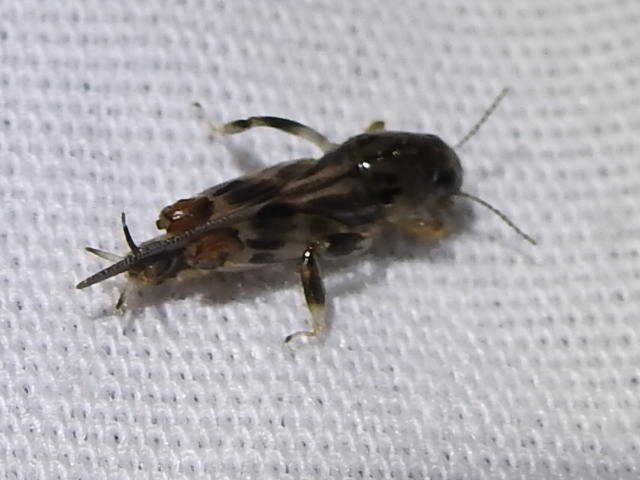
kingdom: Animalia
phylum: Arthropoda
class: Insecta
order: Orthoptera
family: Tridactylidae
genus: Neotridactylus
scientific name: Neotridactylus apicialis
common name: Larger pygmy locust
